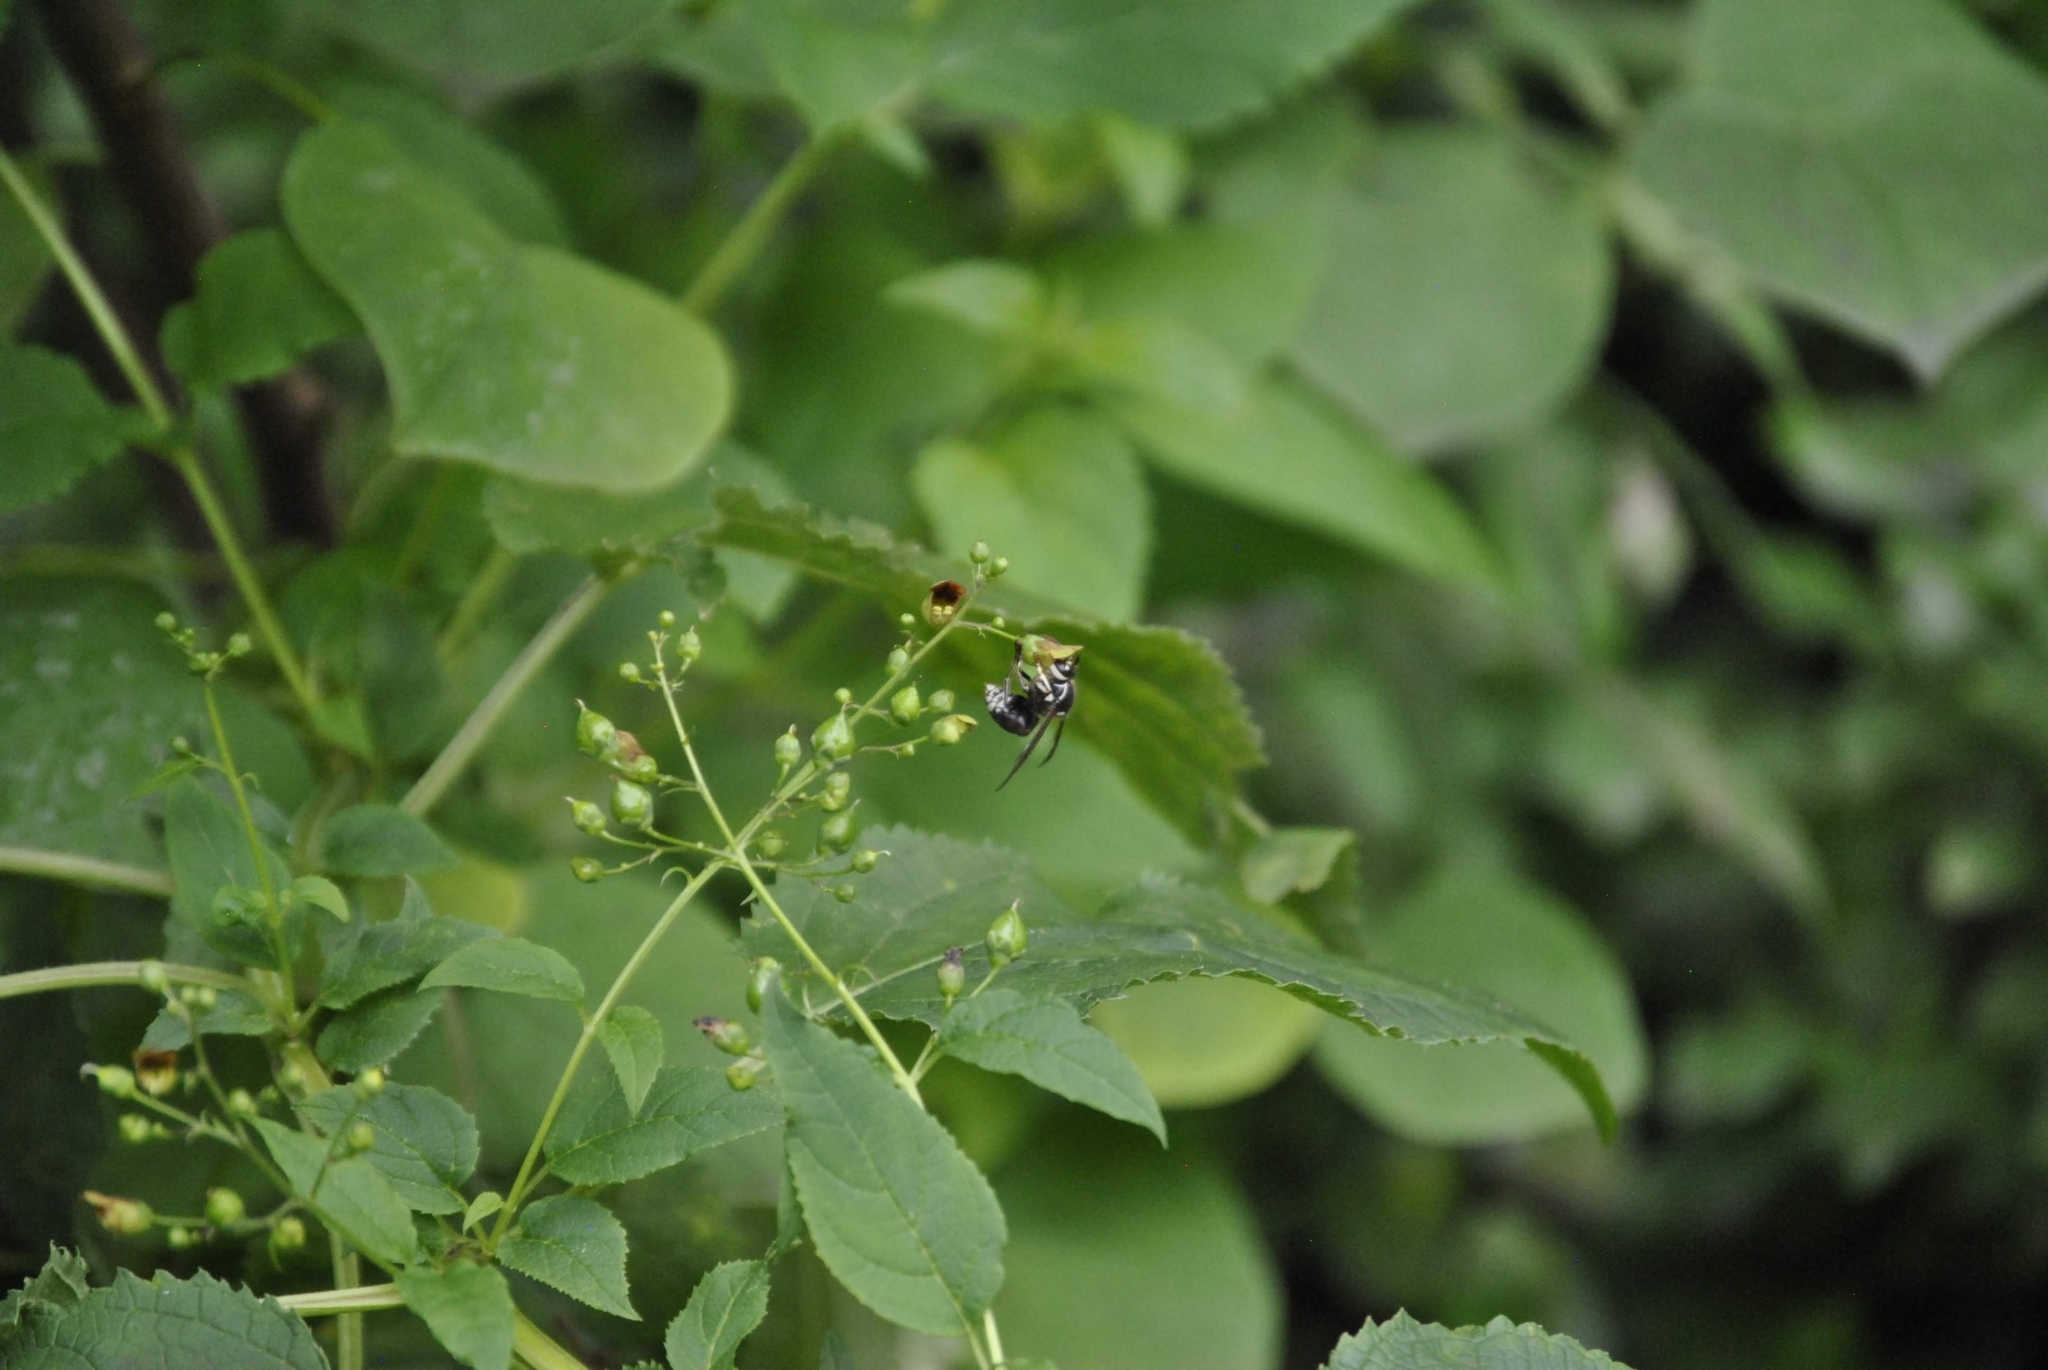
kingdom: Animalia
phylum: Arthropoda
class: Insecta
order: Hymenoptera
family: Vespidae
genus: Dolichovespula
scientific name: Dolichovespula maculata
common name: Bald-faced hornet
